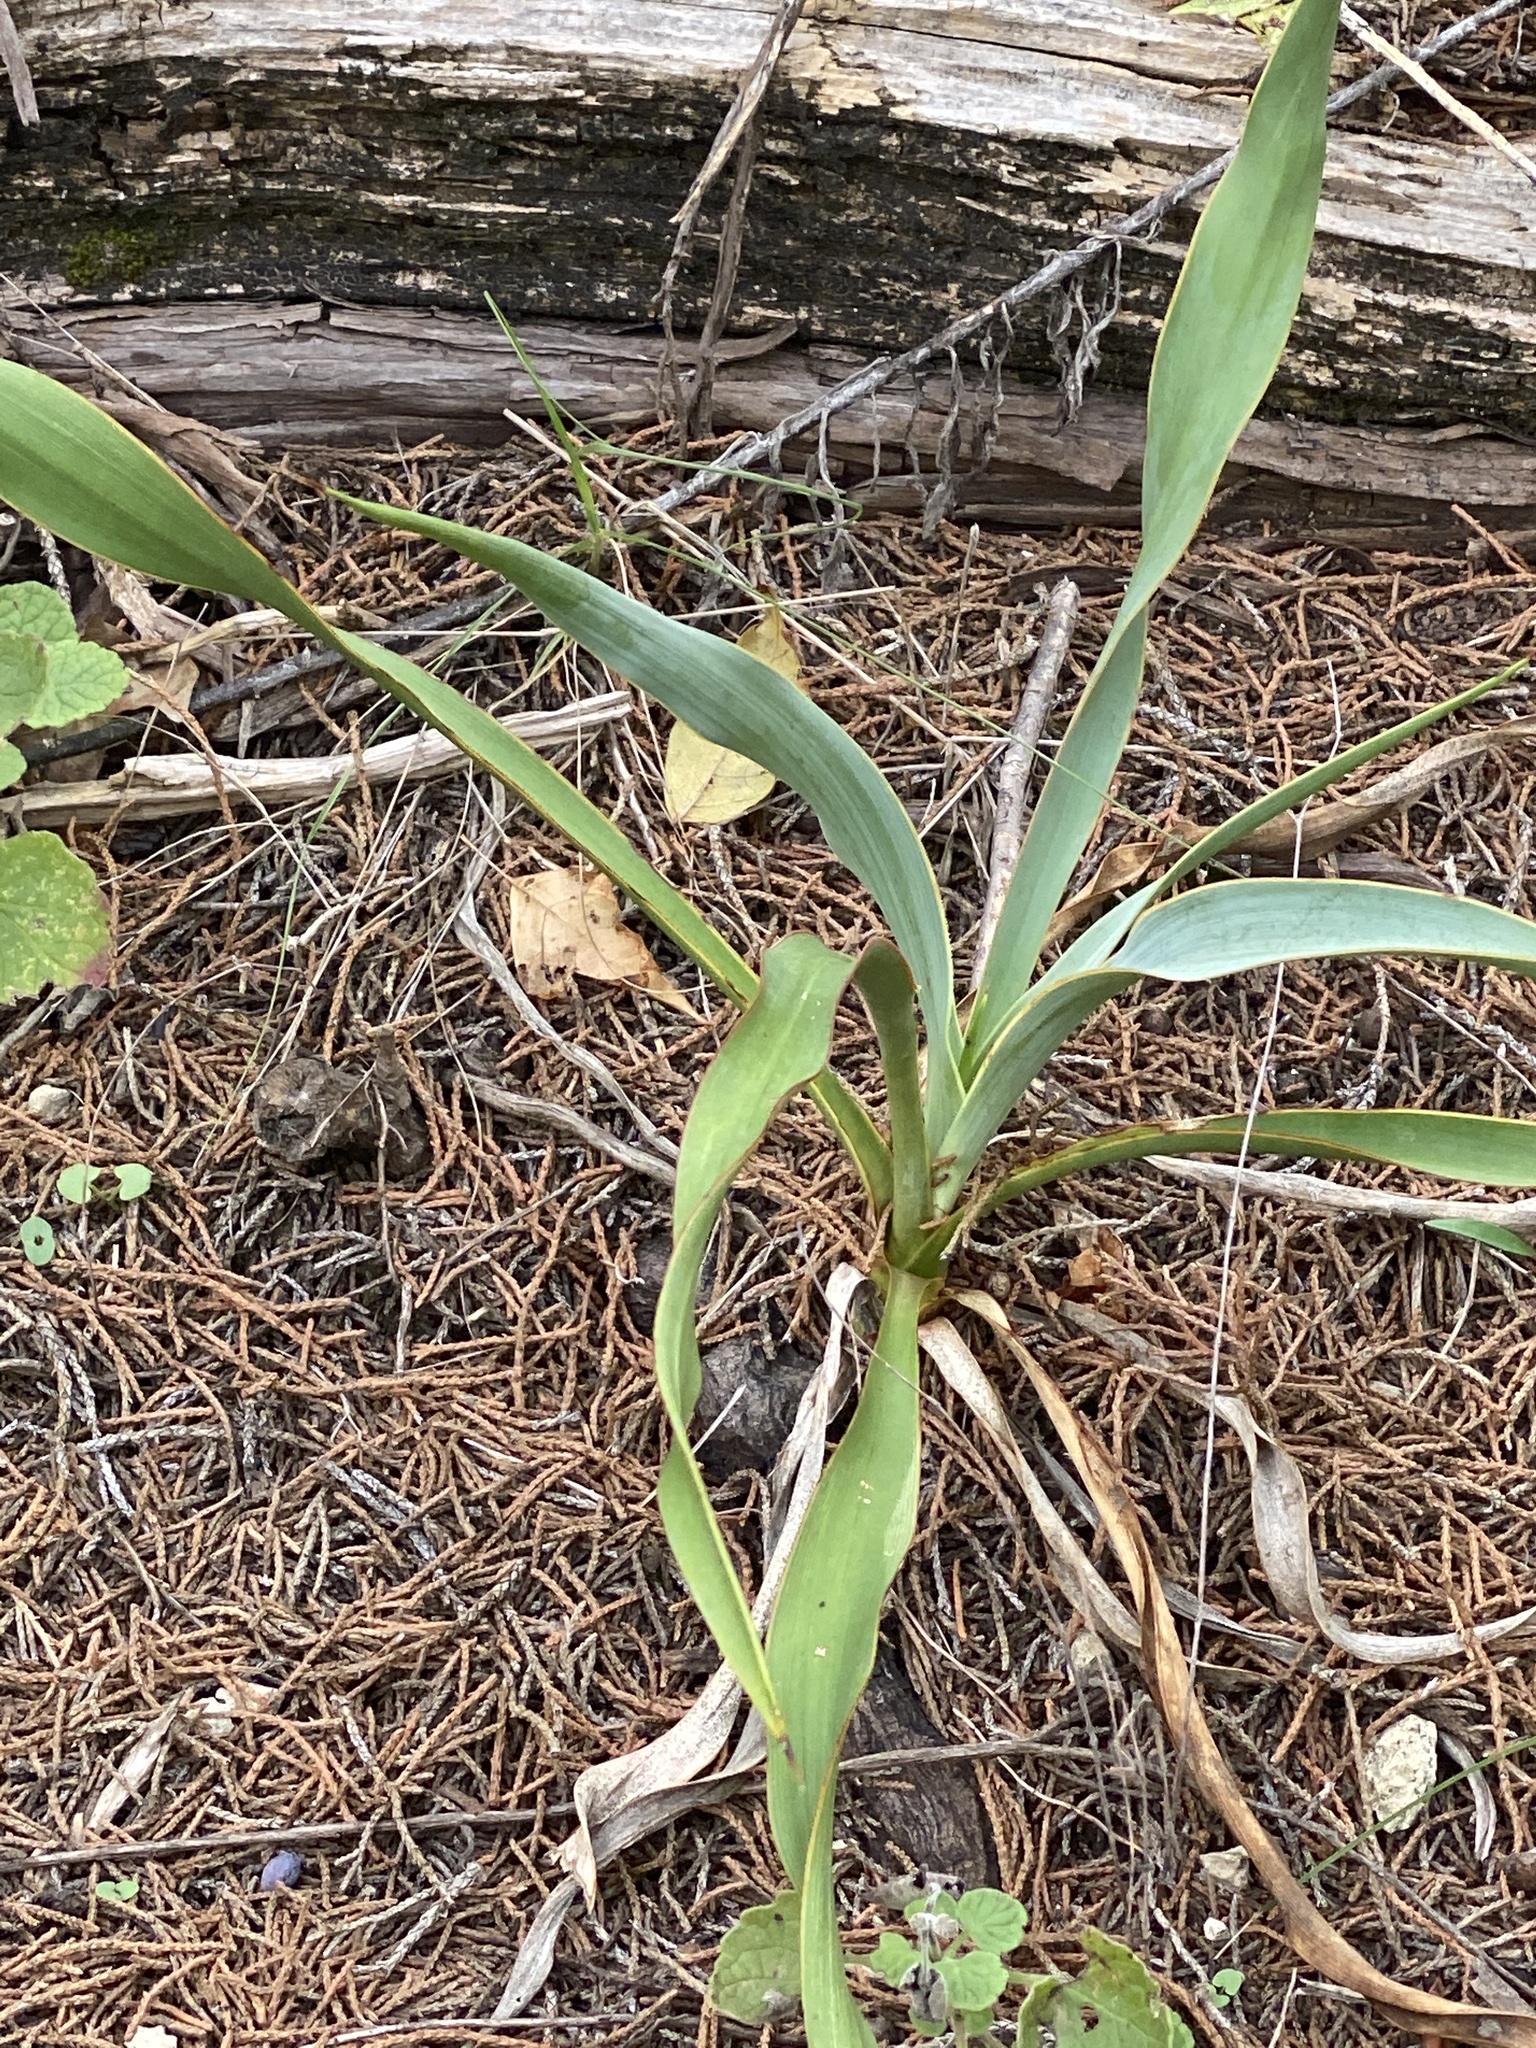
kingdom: Plantae
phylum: Tracheophyta
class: Liliopsida
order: Asparagales
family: Asparagaceae
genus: Yucca
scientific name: Yucca rupicola
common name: Twisted-leaf spanish-dagger
